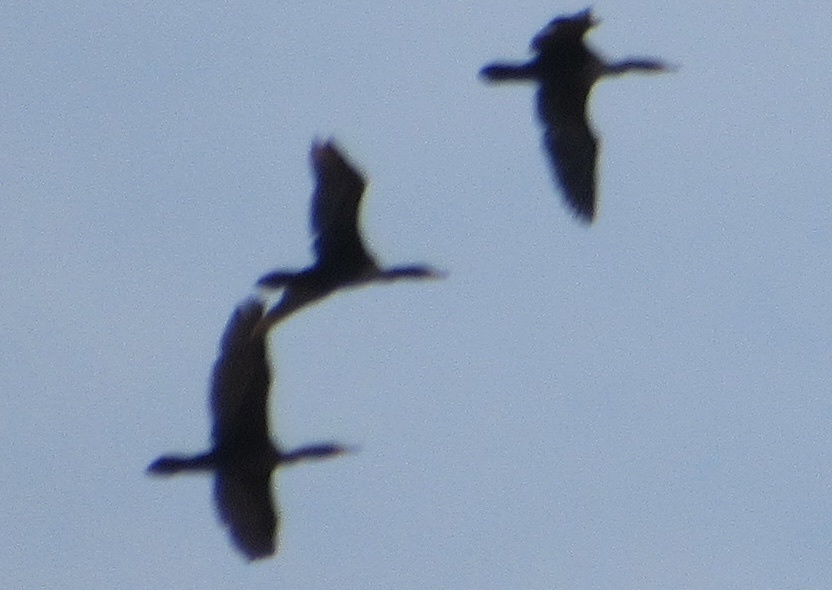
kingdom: Animalia
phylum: Chordata
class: Aves
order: Suliformes
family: Phalacrocoracidae
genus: Phalacrocorax
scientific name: Phalacrocorax auritus
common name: Double-crested cormorant
